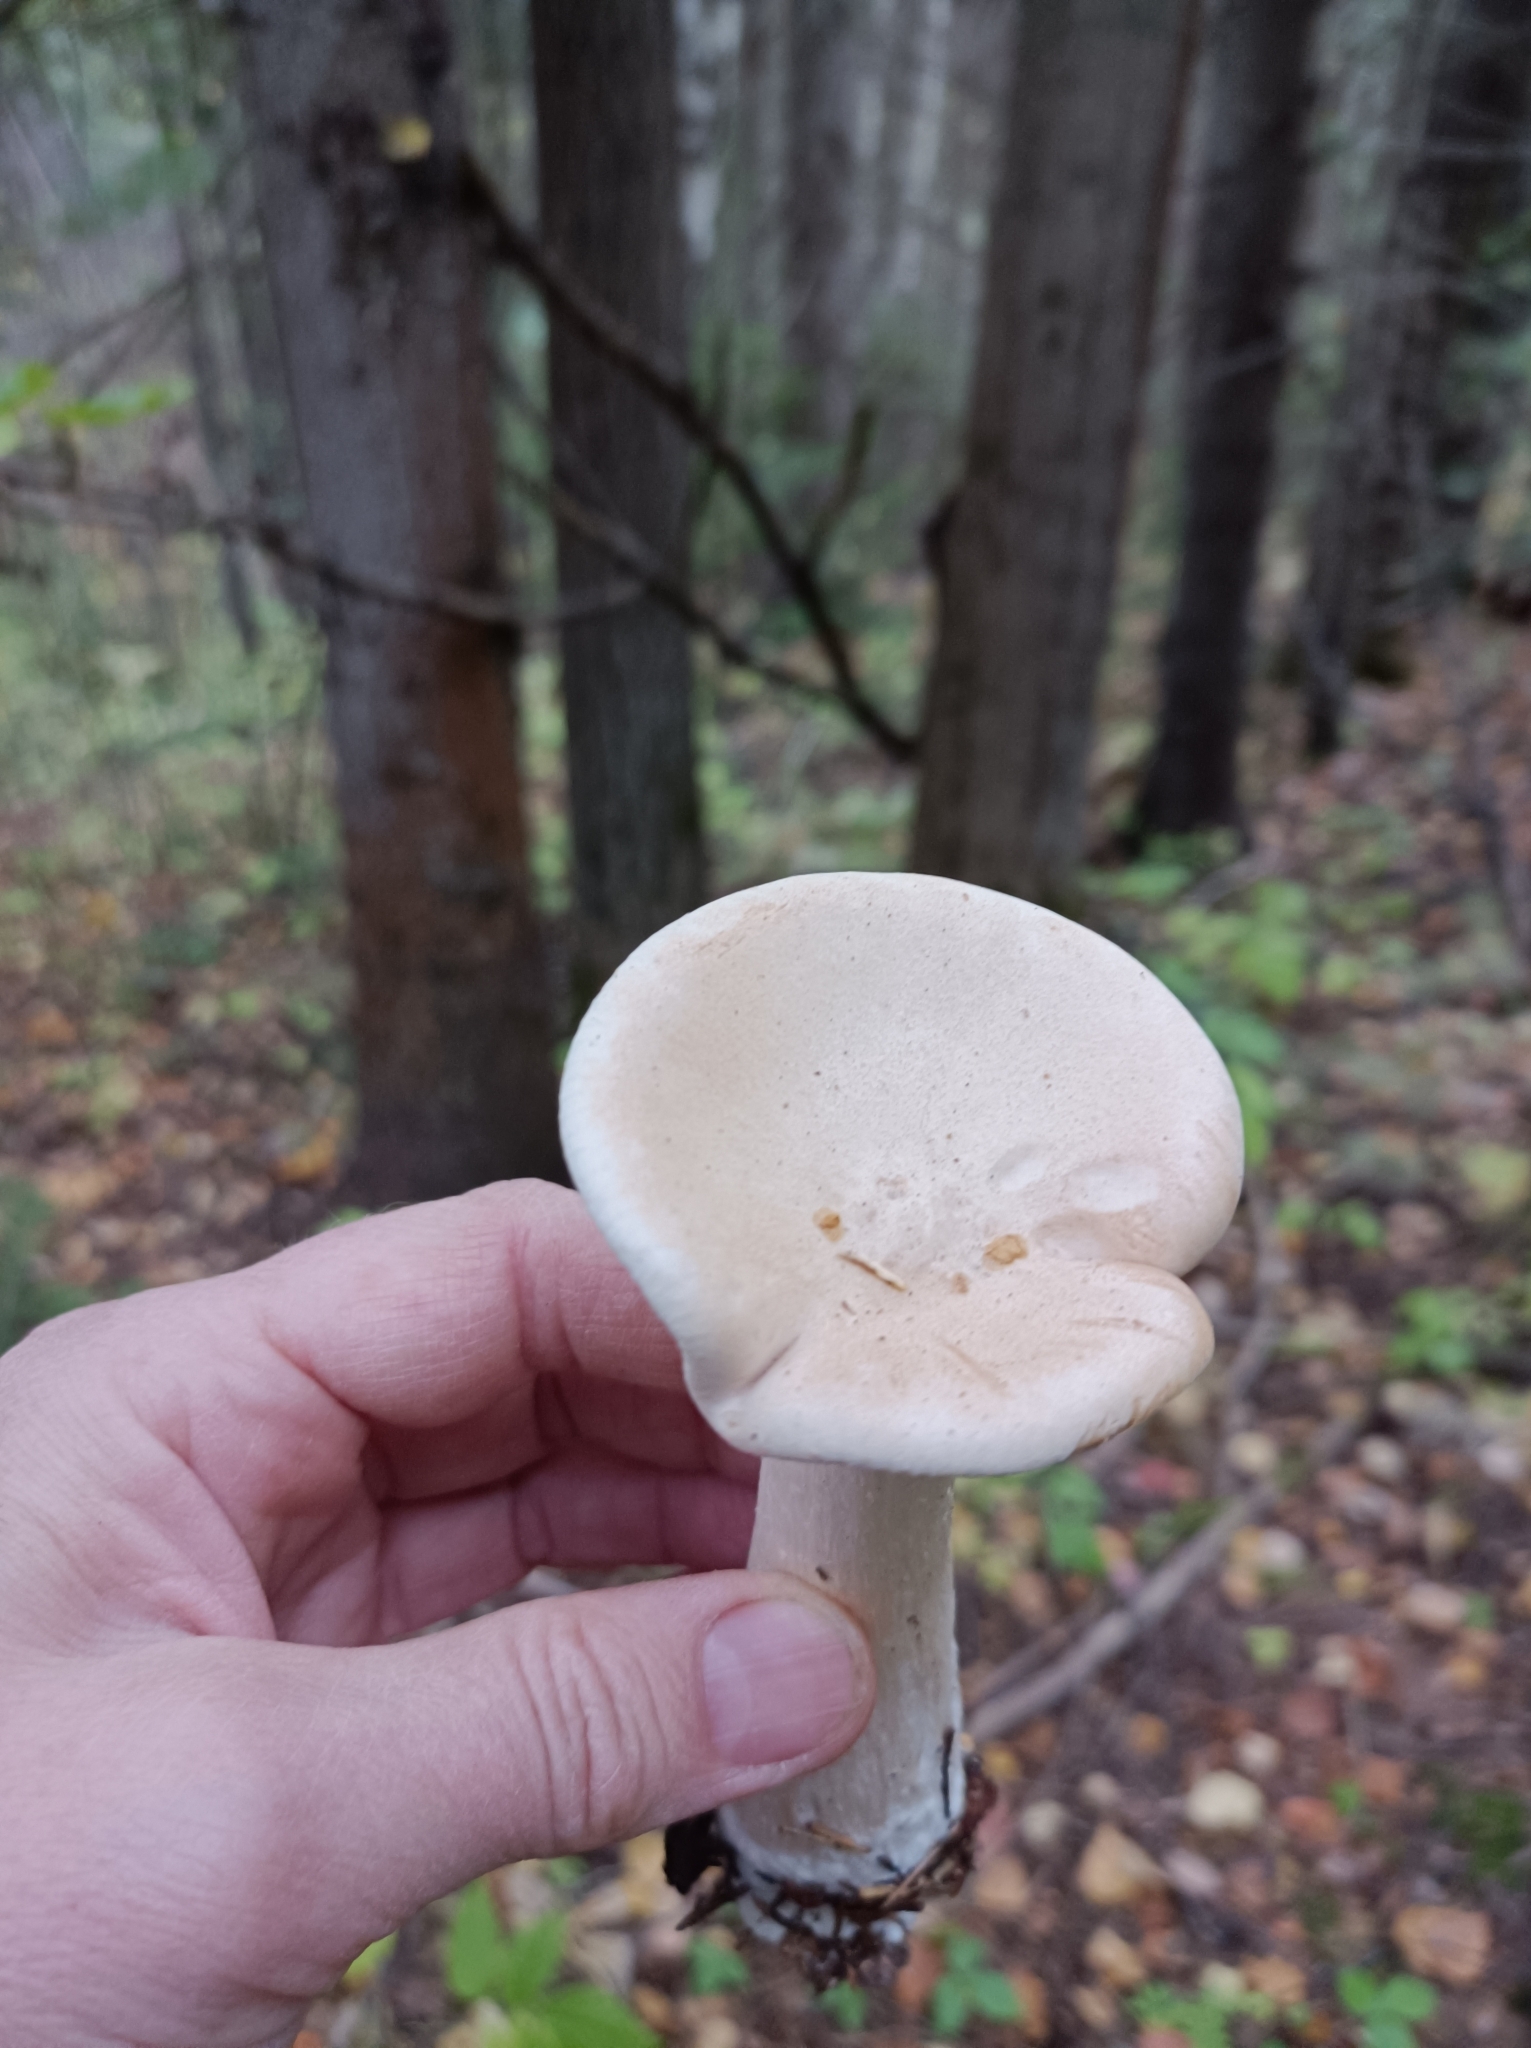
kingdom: Fungi
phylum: Basidiomycota
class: Agaricomycetes
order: Agaricales
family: Tricholomataceae
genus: Infundibulicybe
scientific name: Infundibulicybe geotropa
